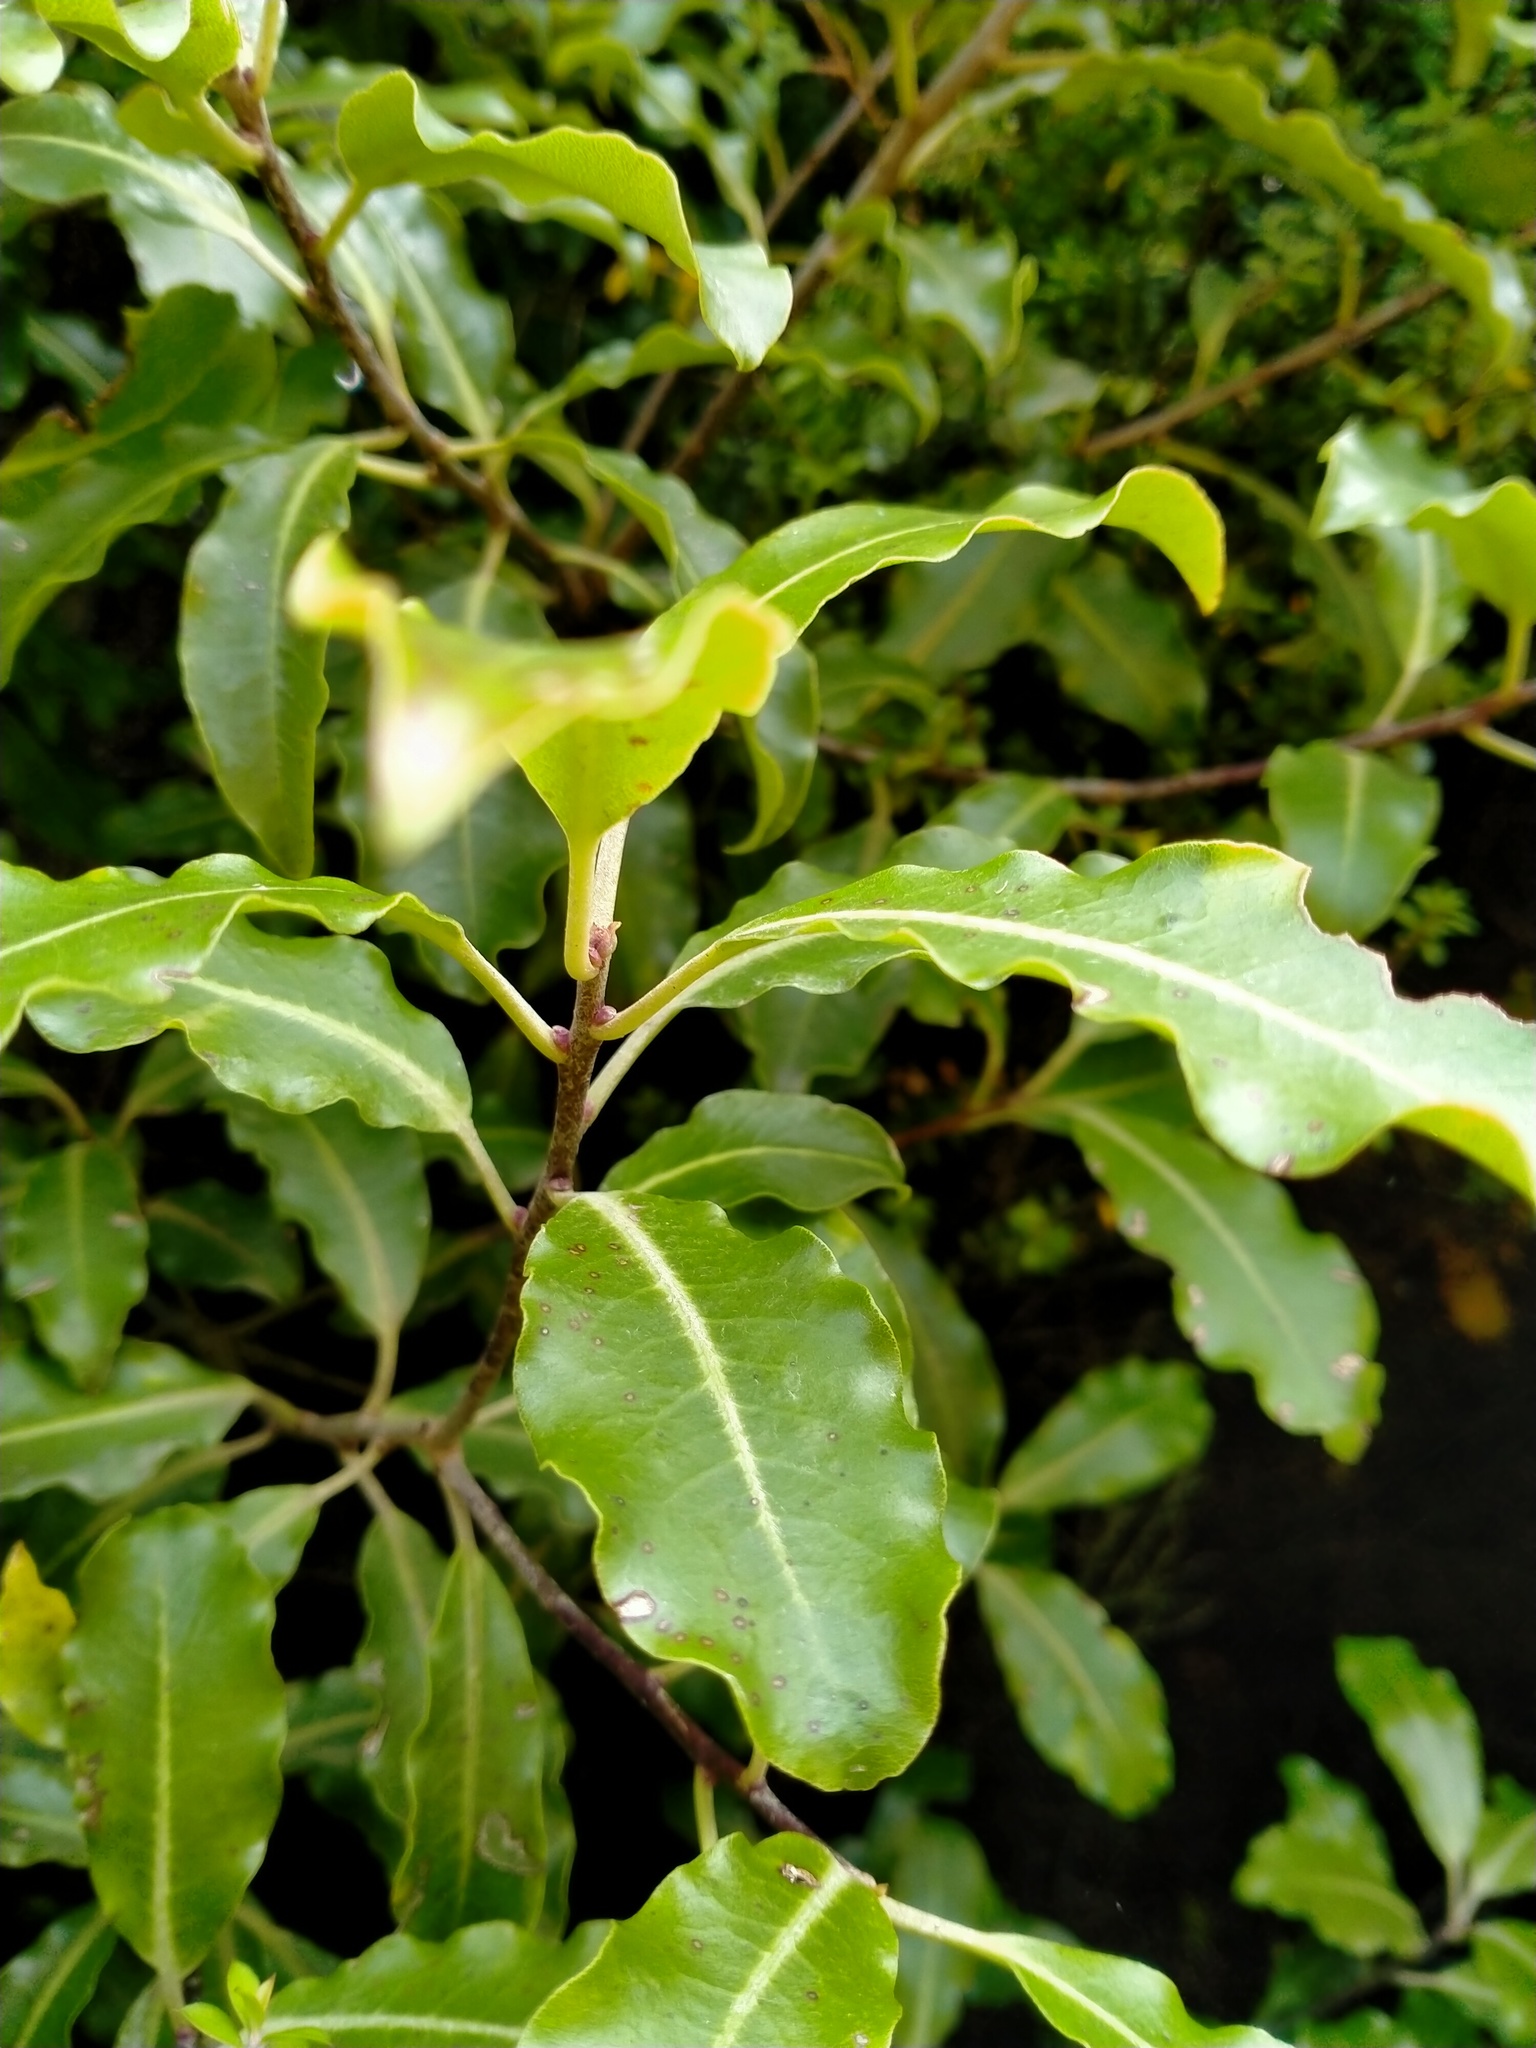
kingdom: Plantae
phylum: Tracheophyta
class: Magnoliopsida
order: Apiales
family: Pittosporaceae
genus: Pittosporum
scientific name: Pittosporum tenuifolium
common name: Kohuhu
